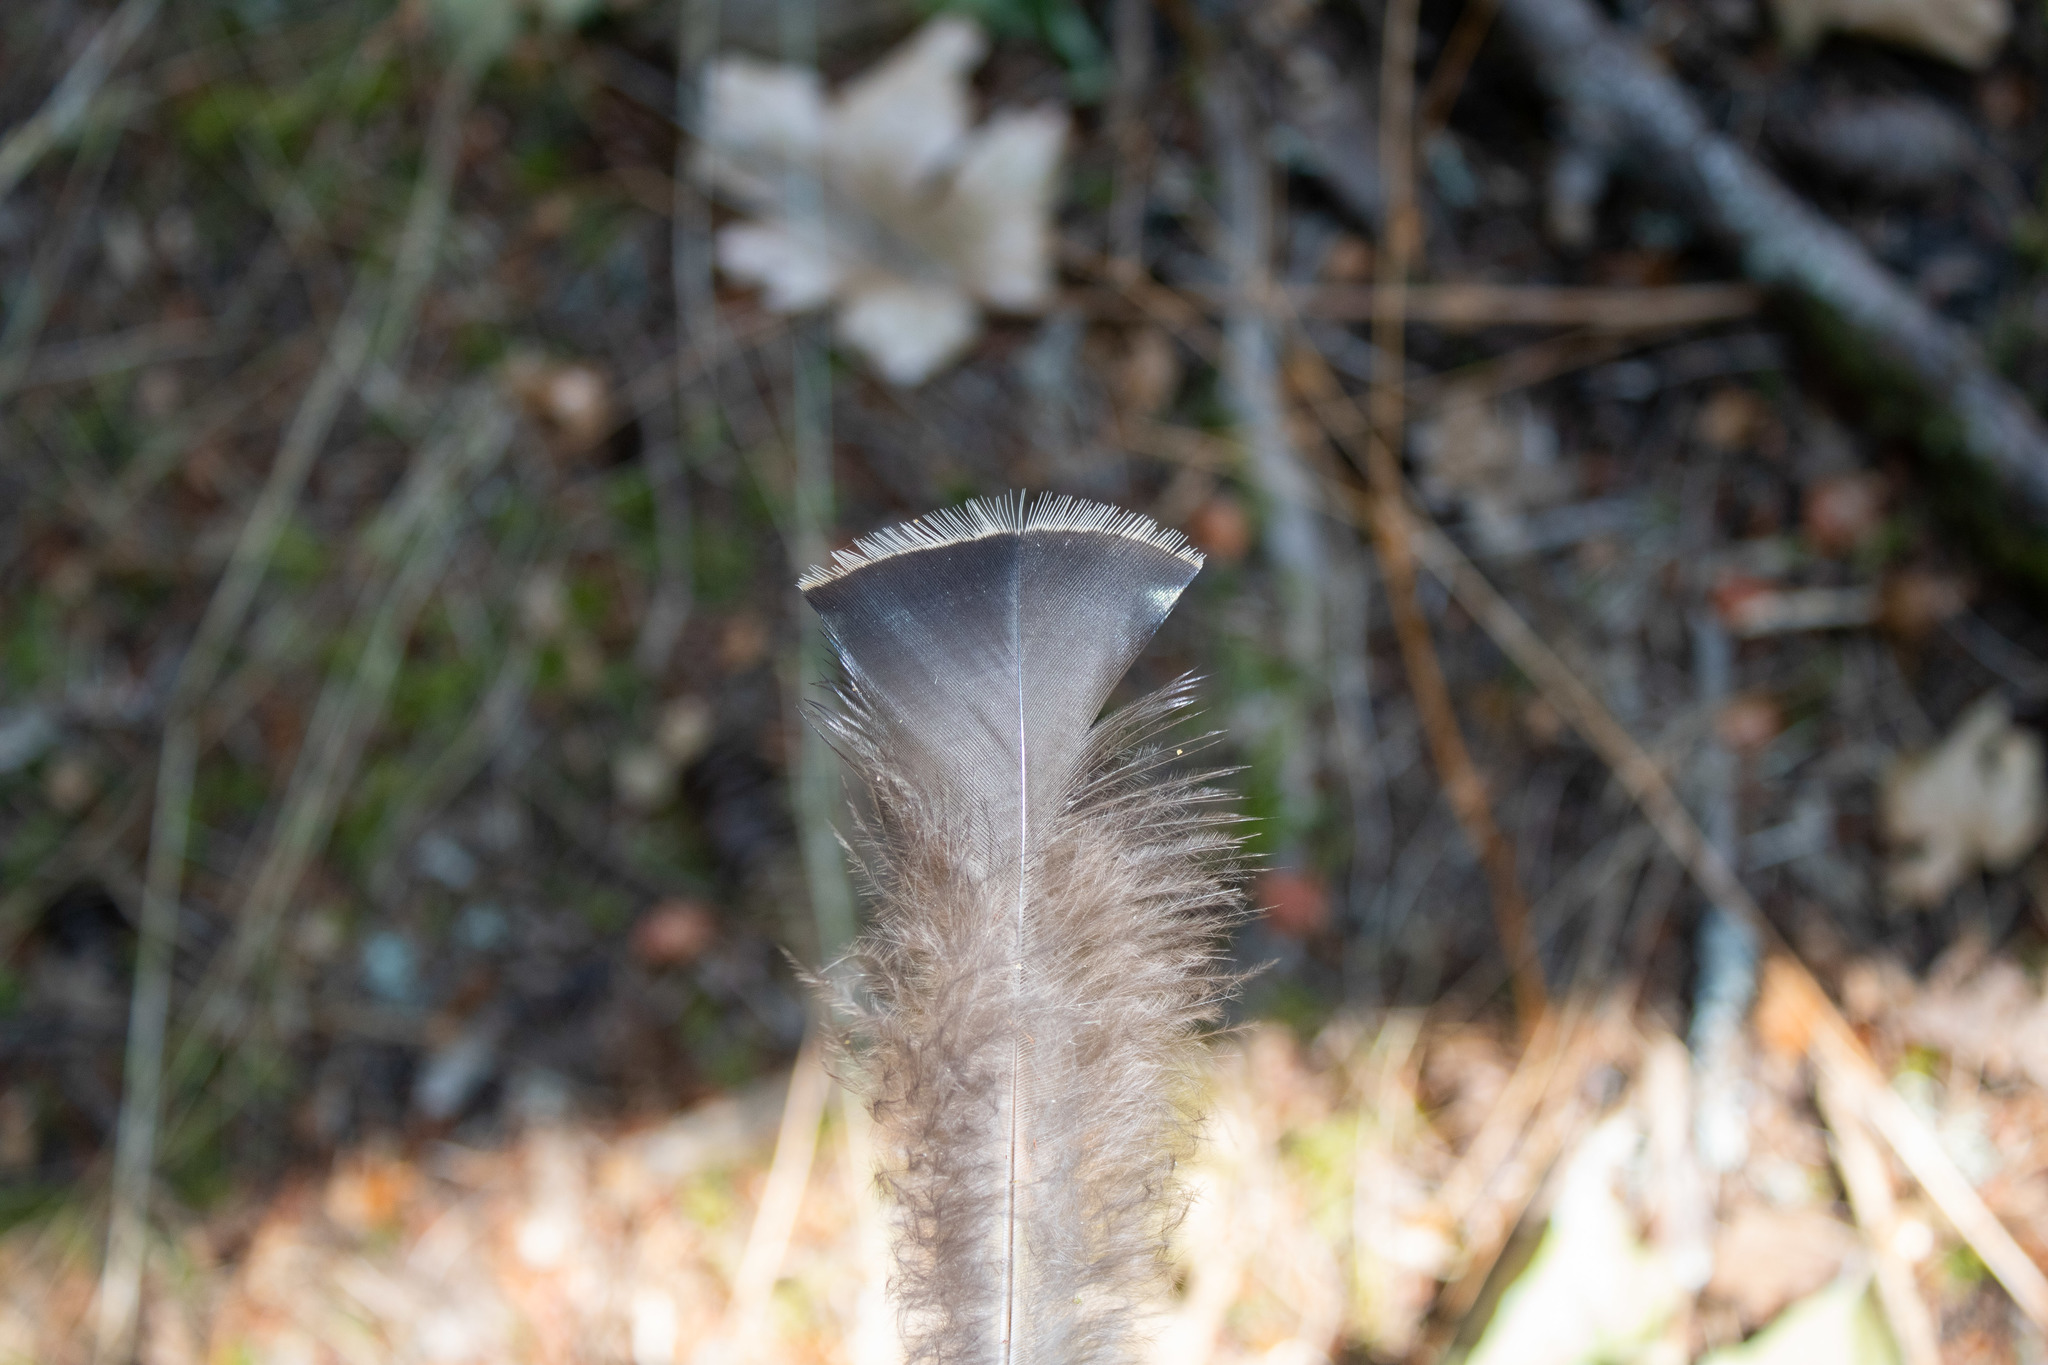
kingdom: Animalia
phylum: Chordata
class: Aves
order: Galliformes
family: Phasianidae
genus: Meleagris
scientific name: Meleagris gallopavo
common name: Wild turkey
